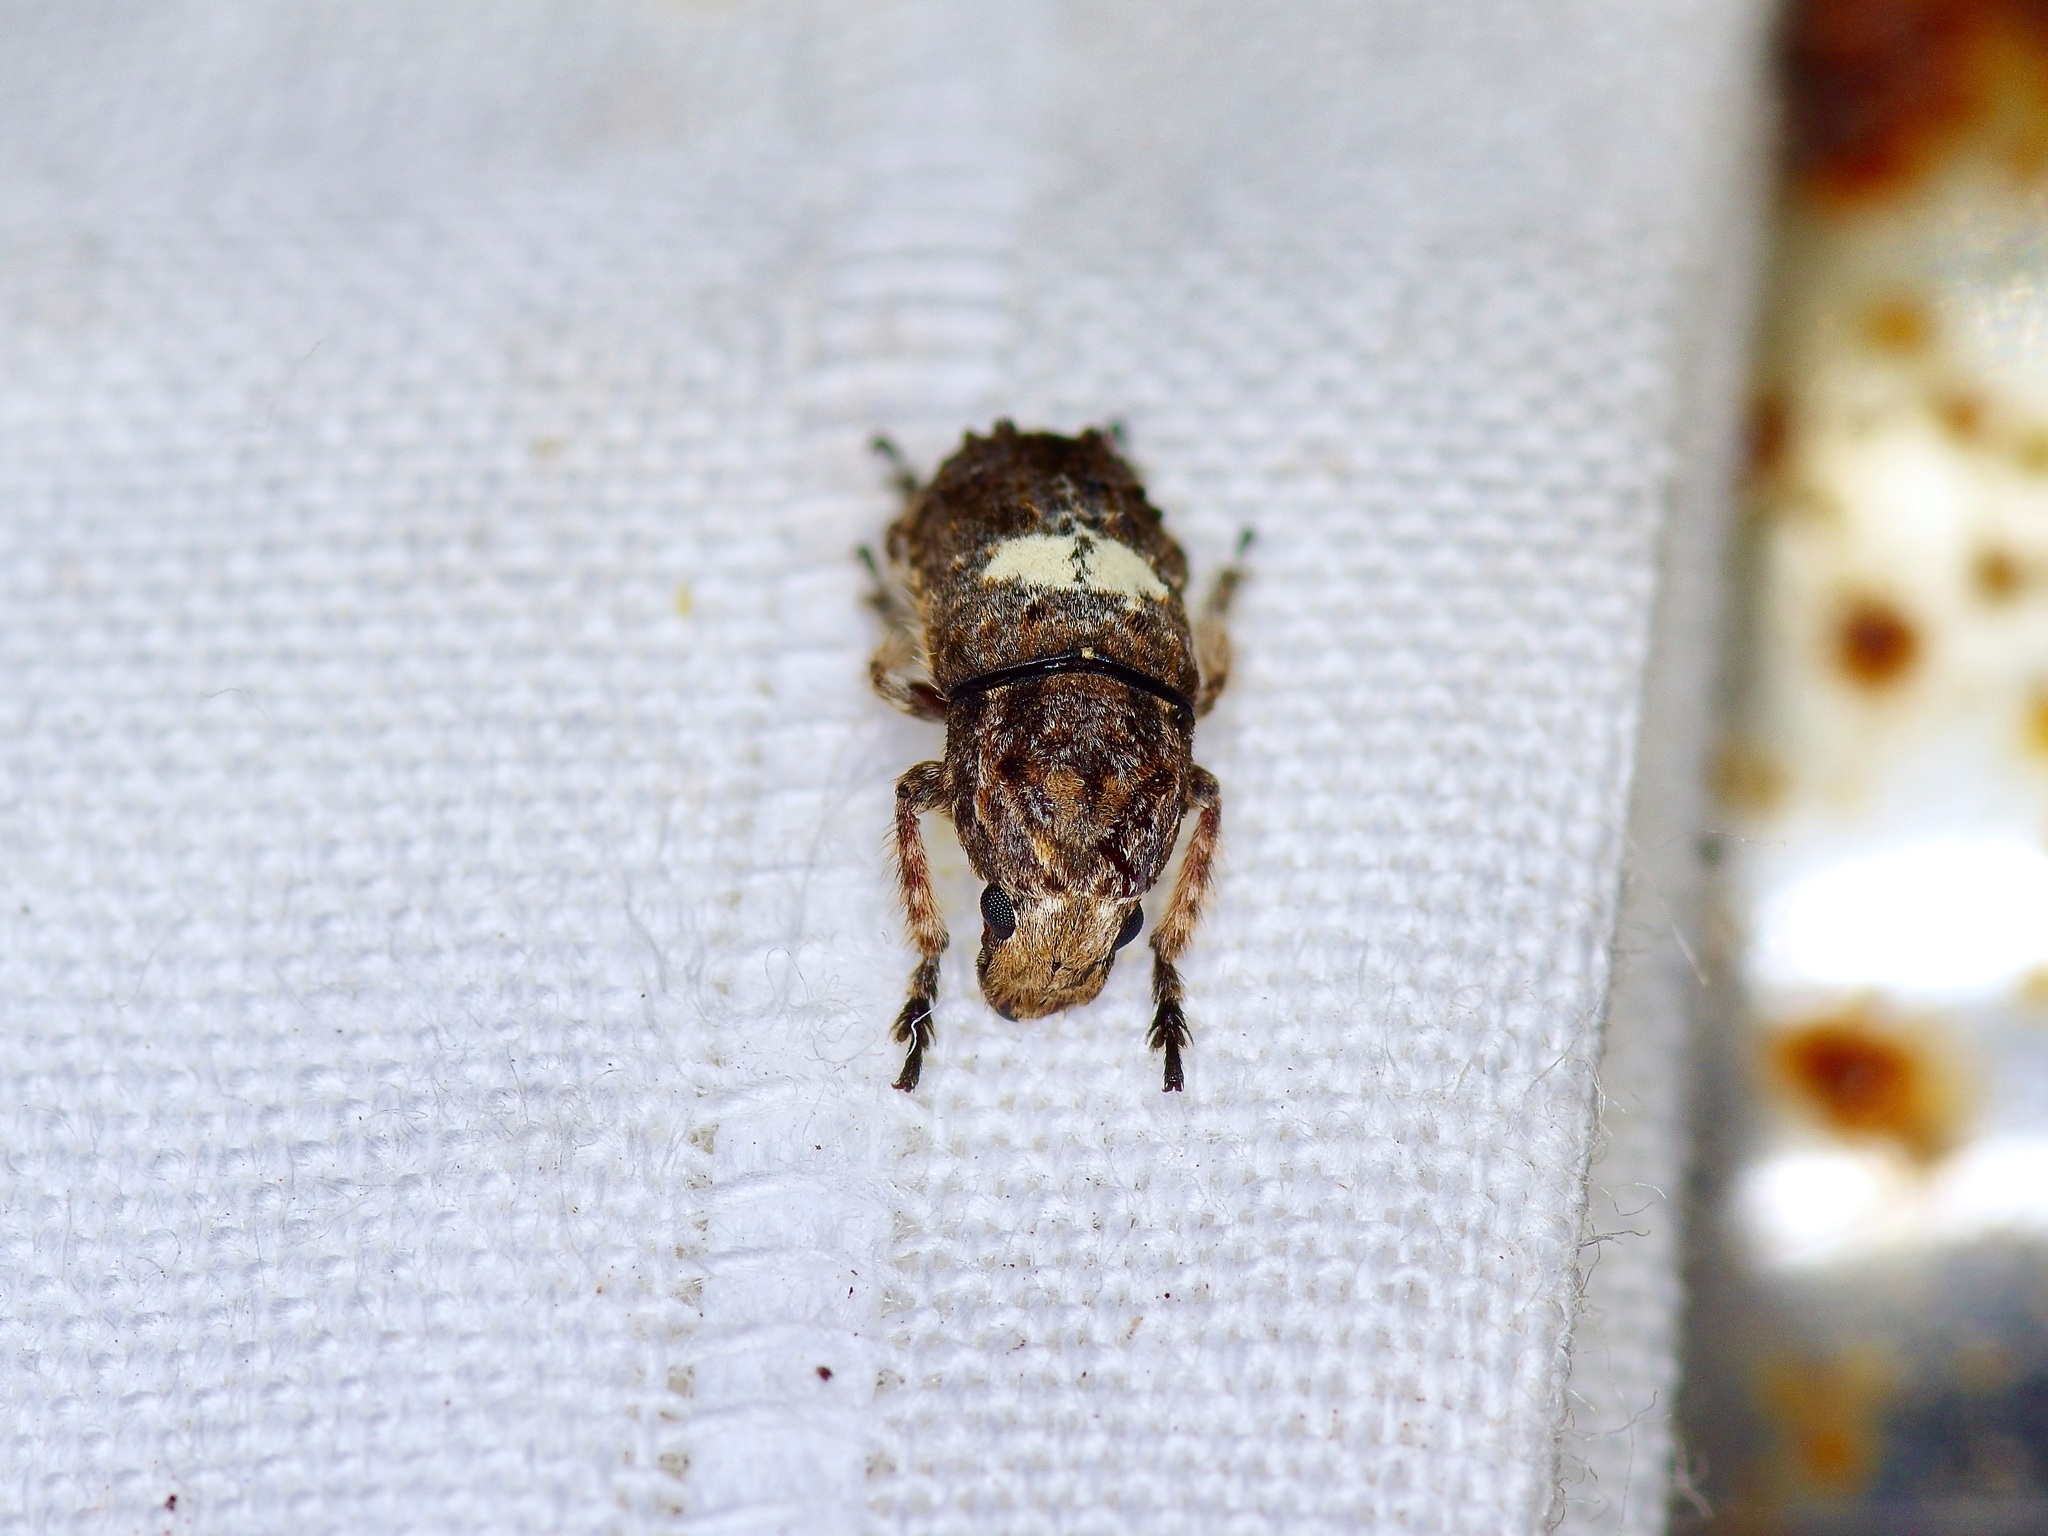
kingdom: Animalia
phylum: Arthropoda
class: Insecta
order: Coleoptera
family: Anthribidae
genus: Toxonotus
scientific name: Toxonotus cornutus
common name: Fungus weevil
